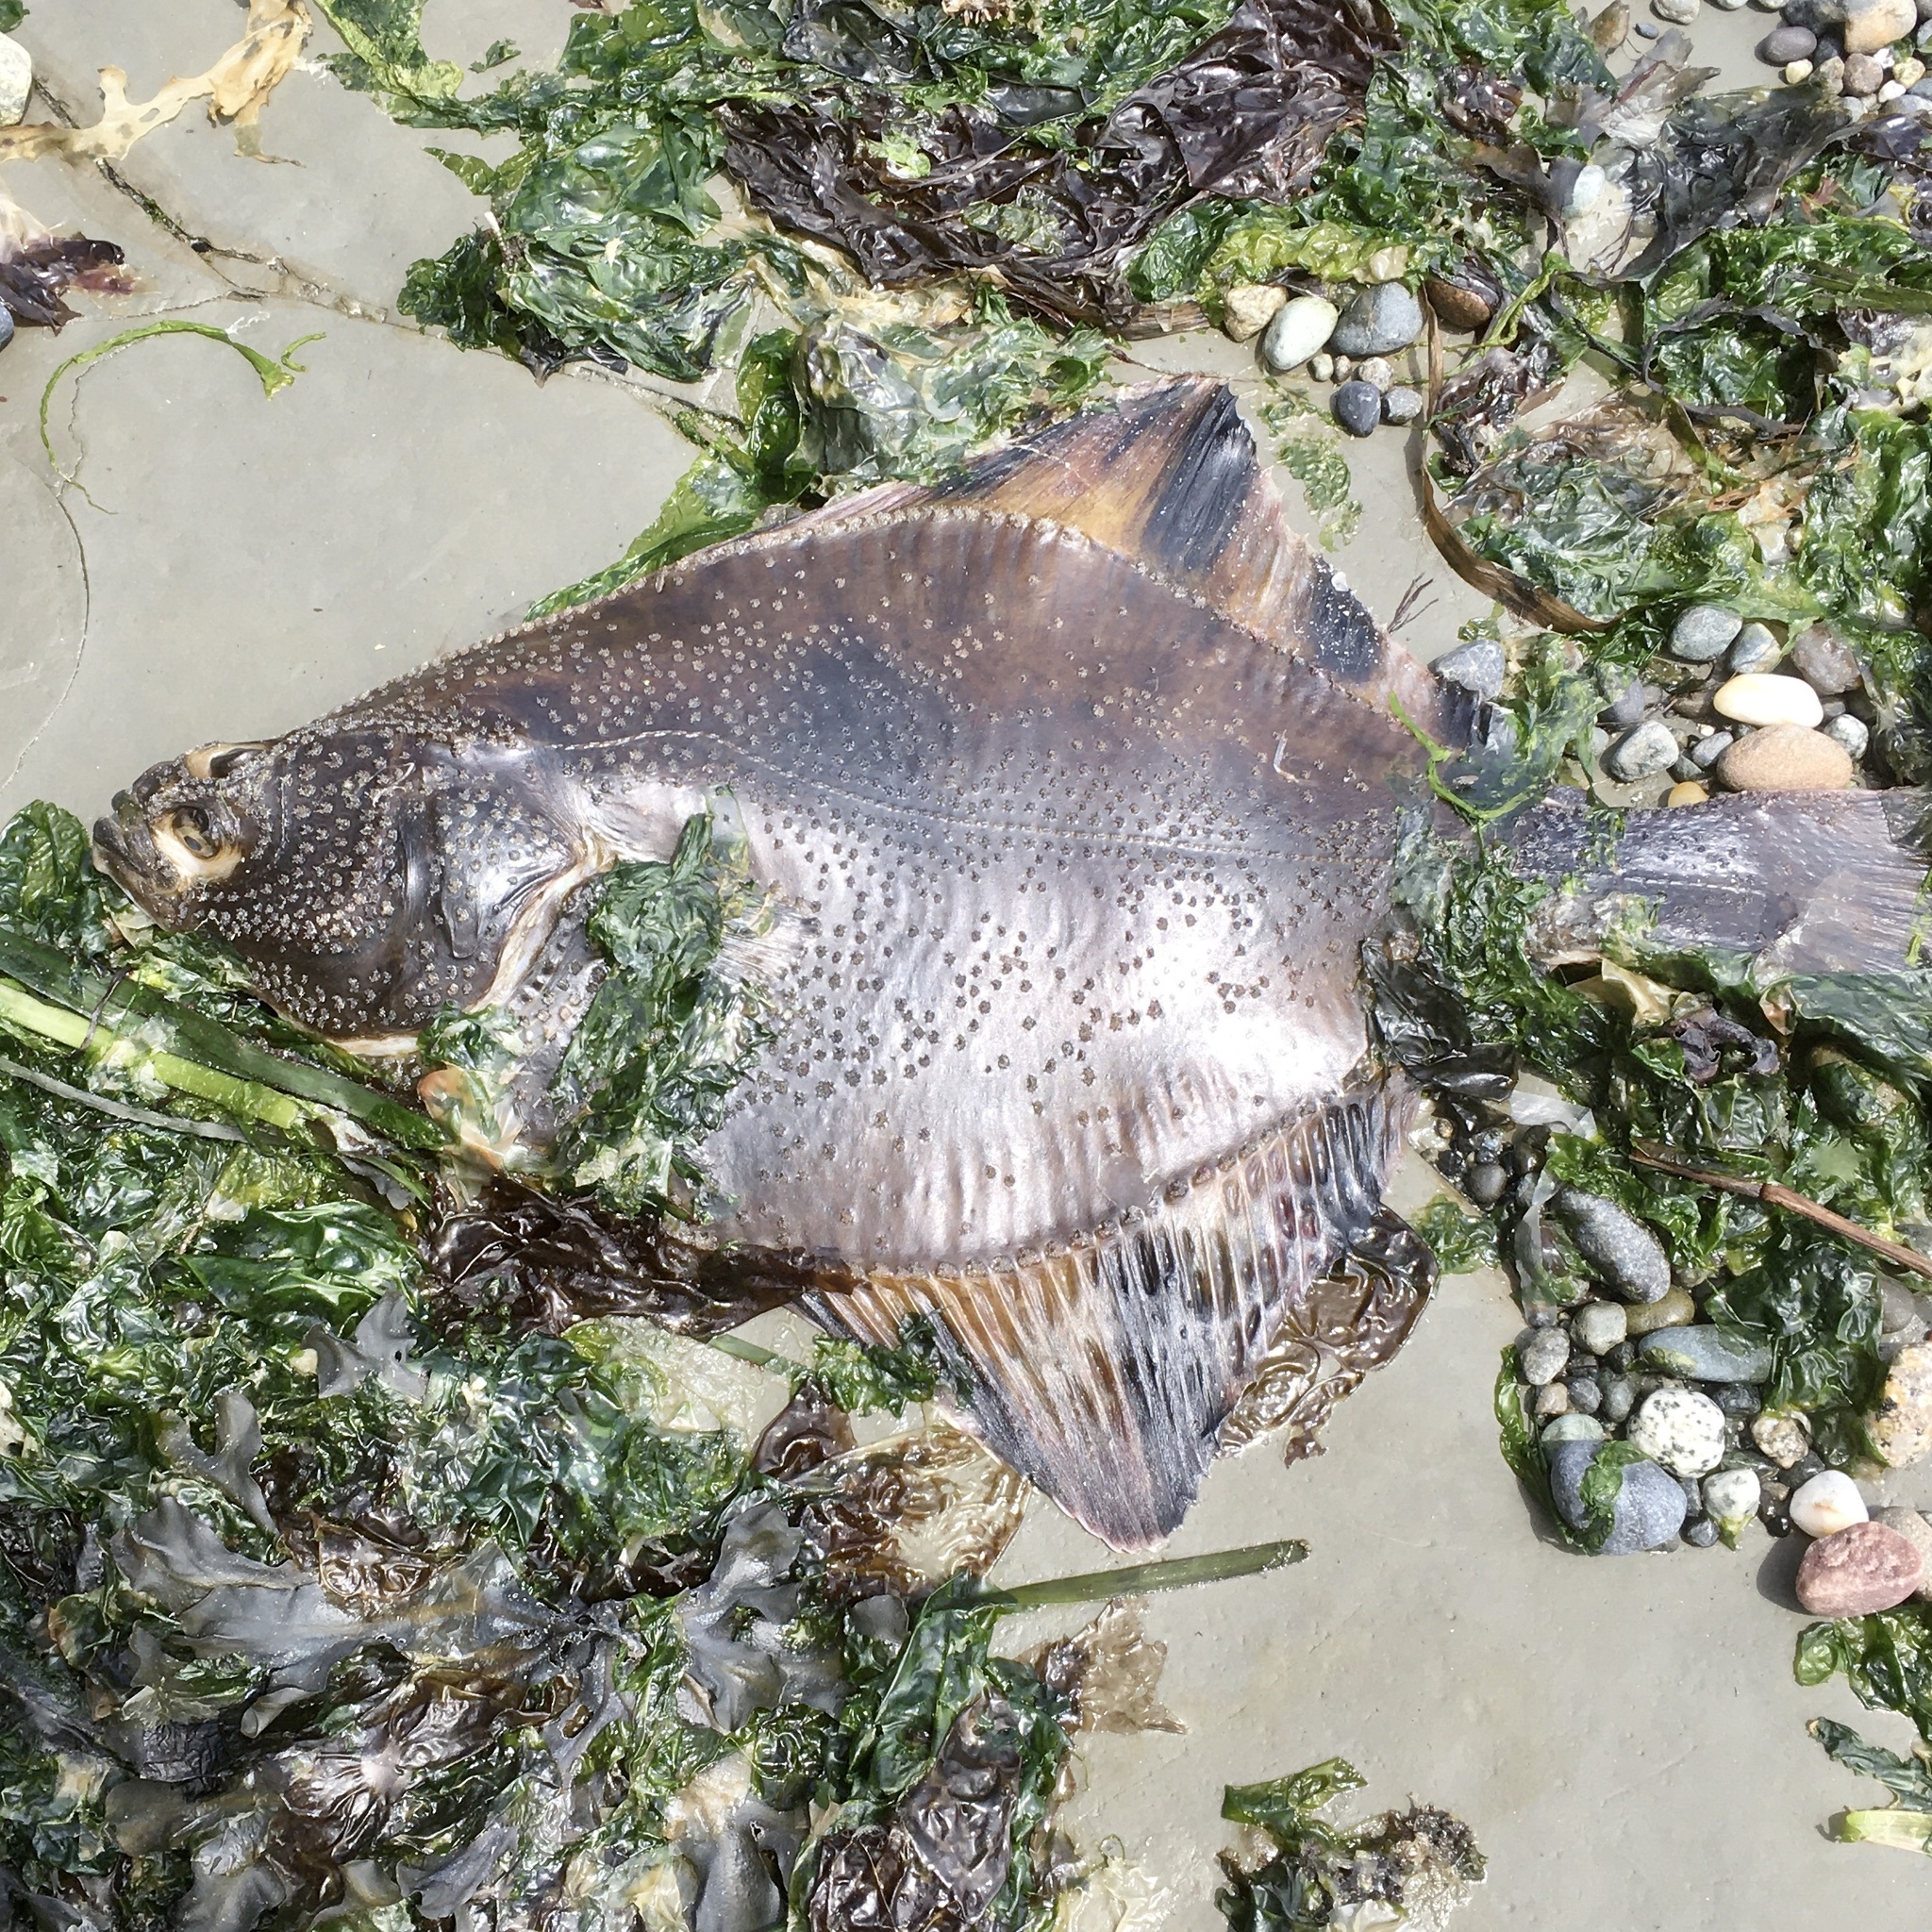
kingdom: Animalia
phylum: Chordata
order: Pleuronectiformes
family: Pleuronectidae
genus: Platichthys
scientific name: Platichthys stellatus
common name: Starry flounder
